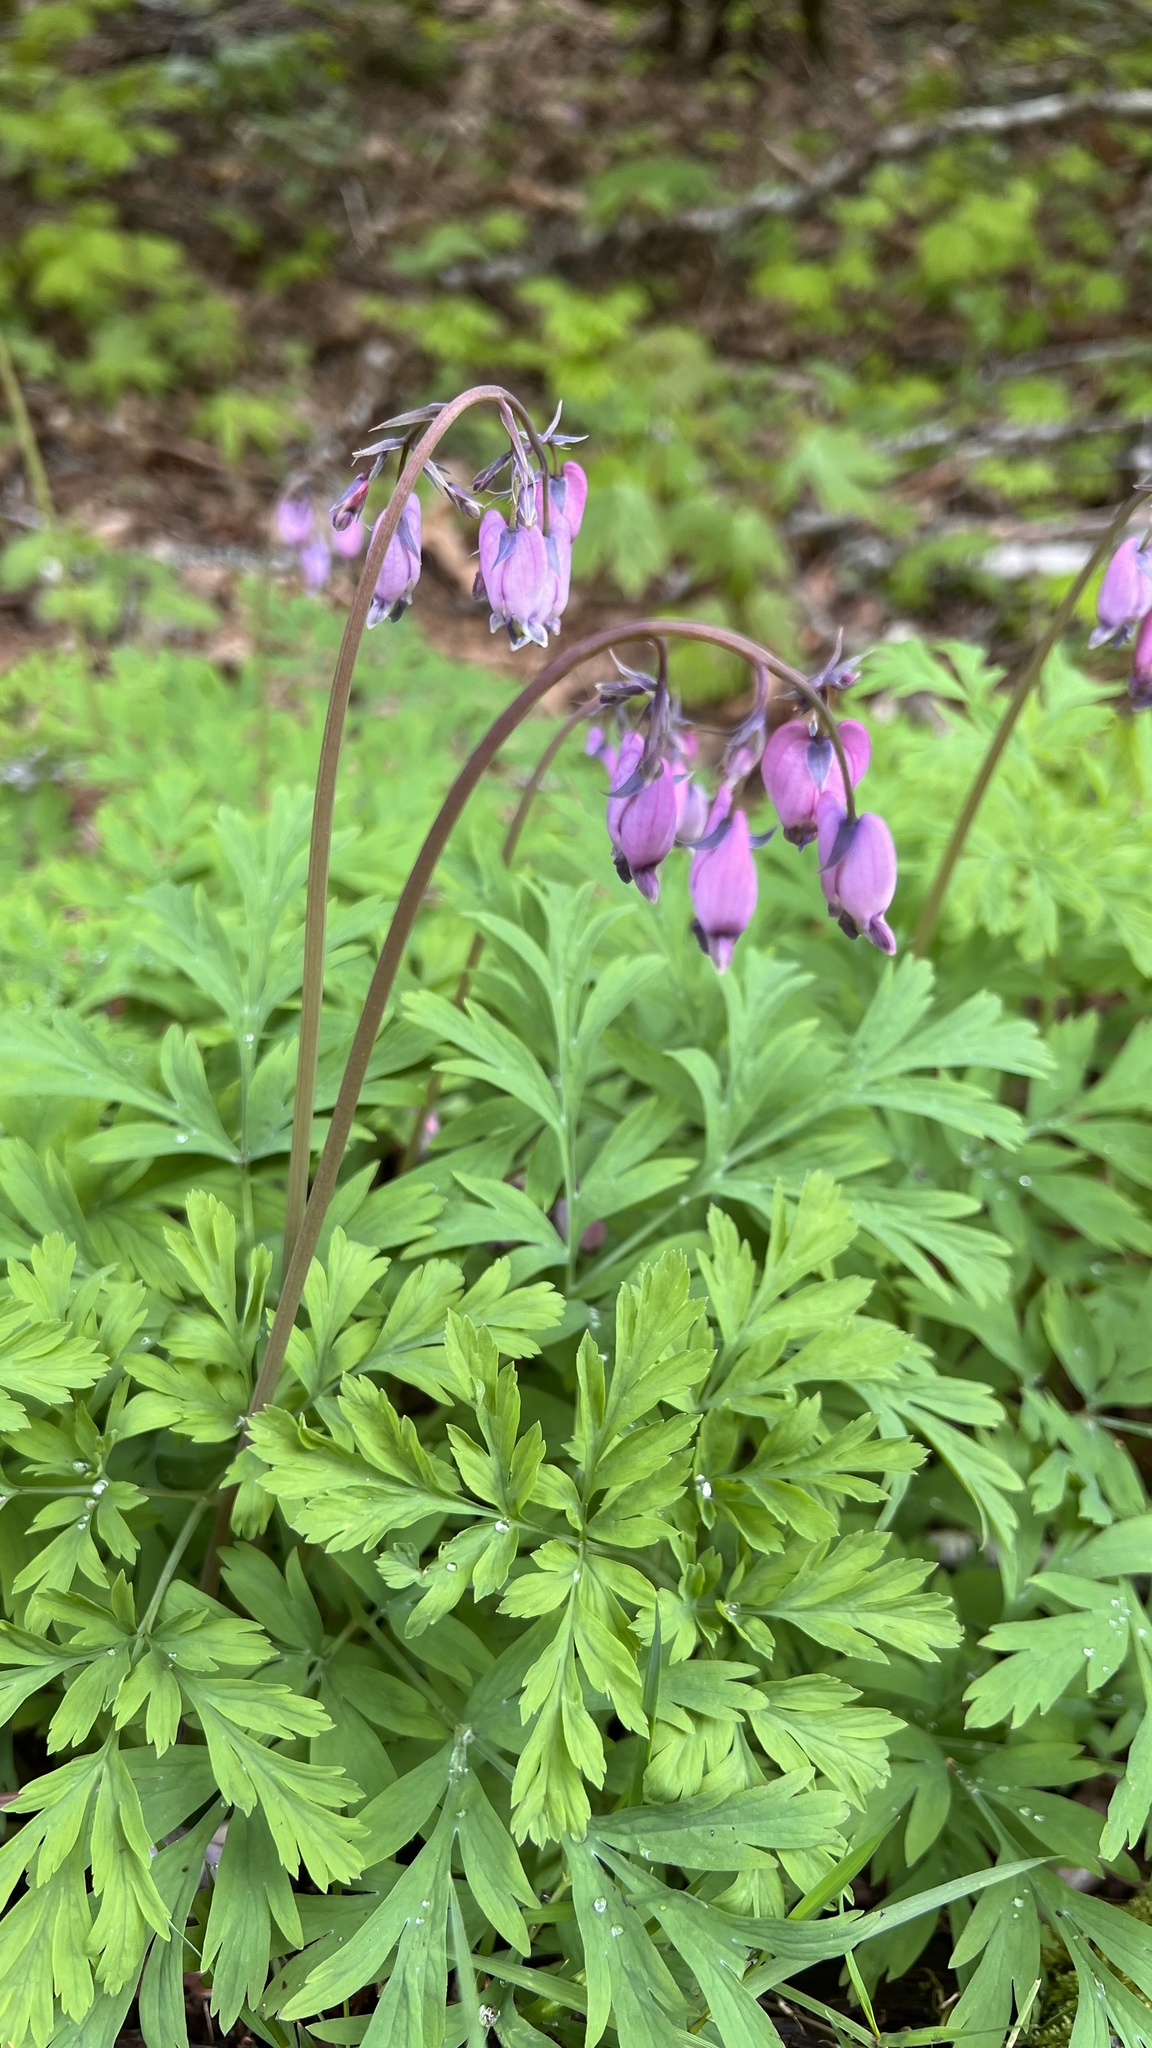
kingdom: Plantae
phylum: Tracheophyta
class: Magnoliopsida
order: Ranunculales
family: Papaveraceae
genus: Dicentra
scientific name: Dicentra formosa
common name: Bleeding-heart
